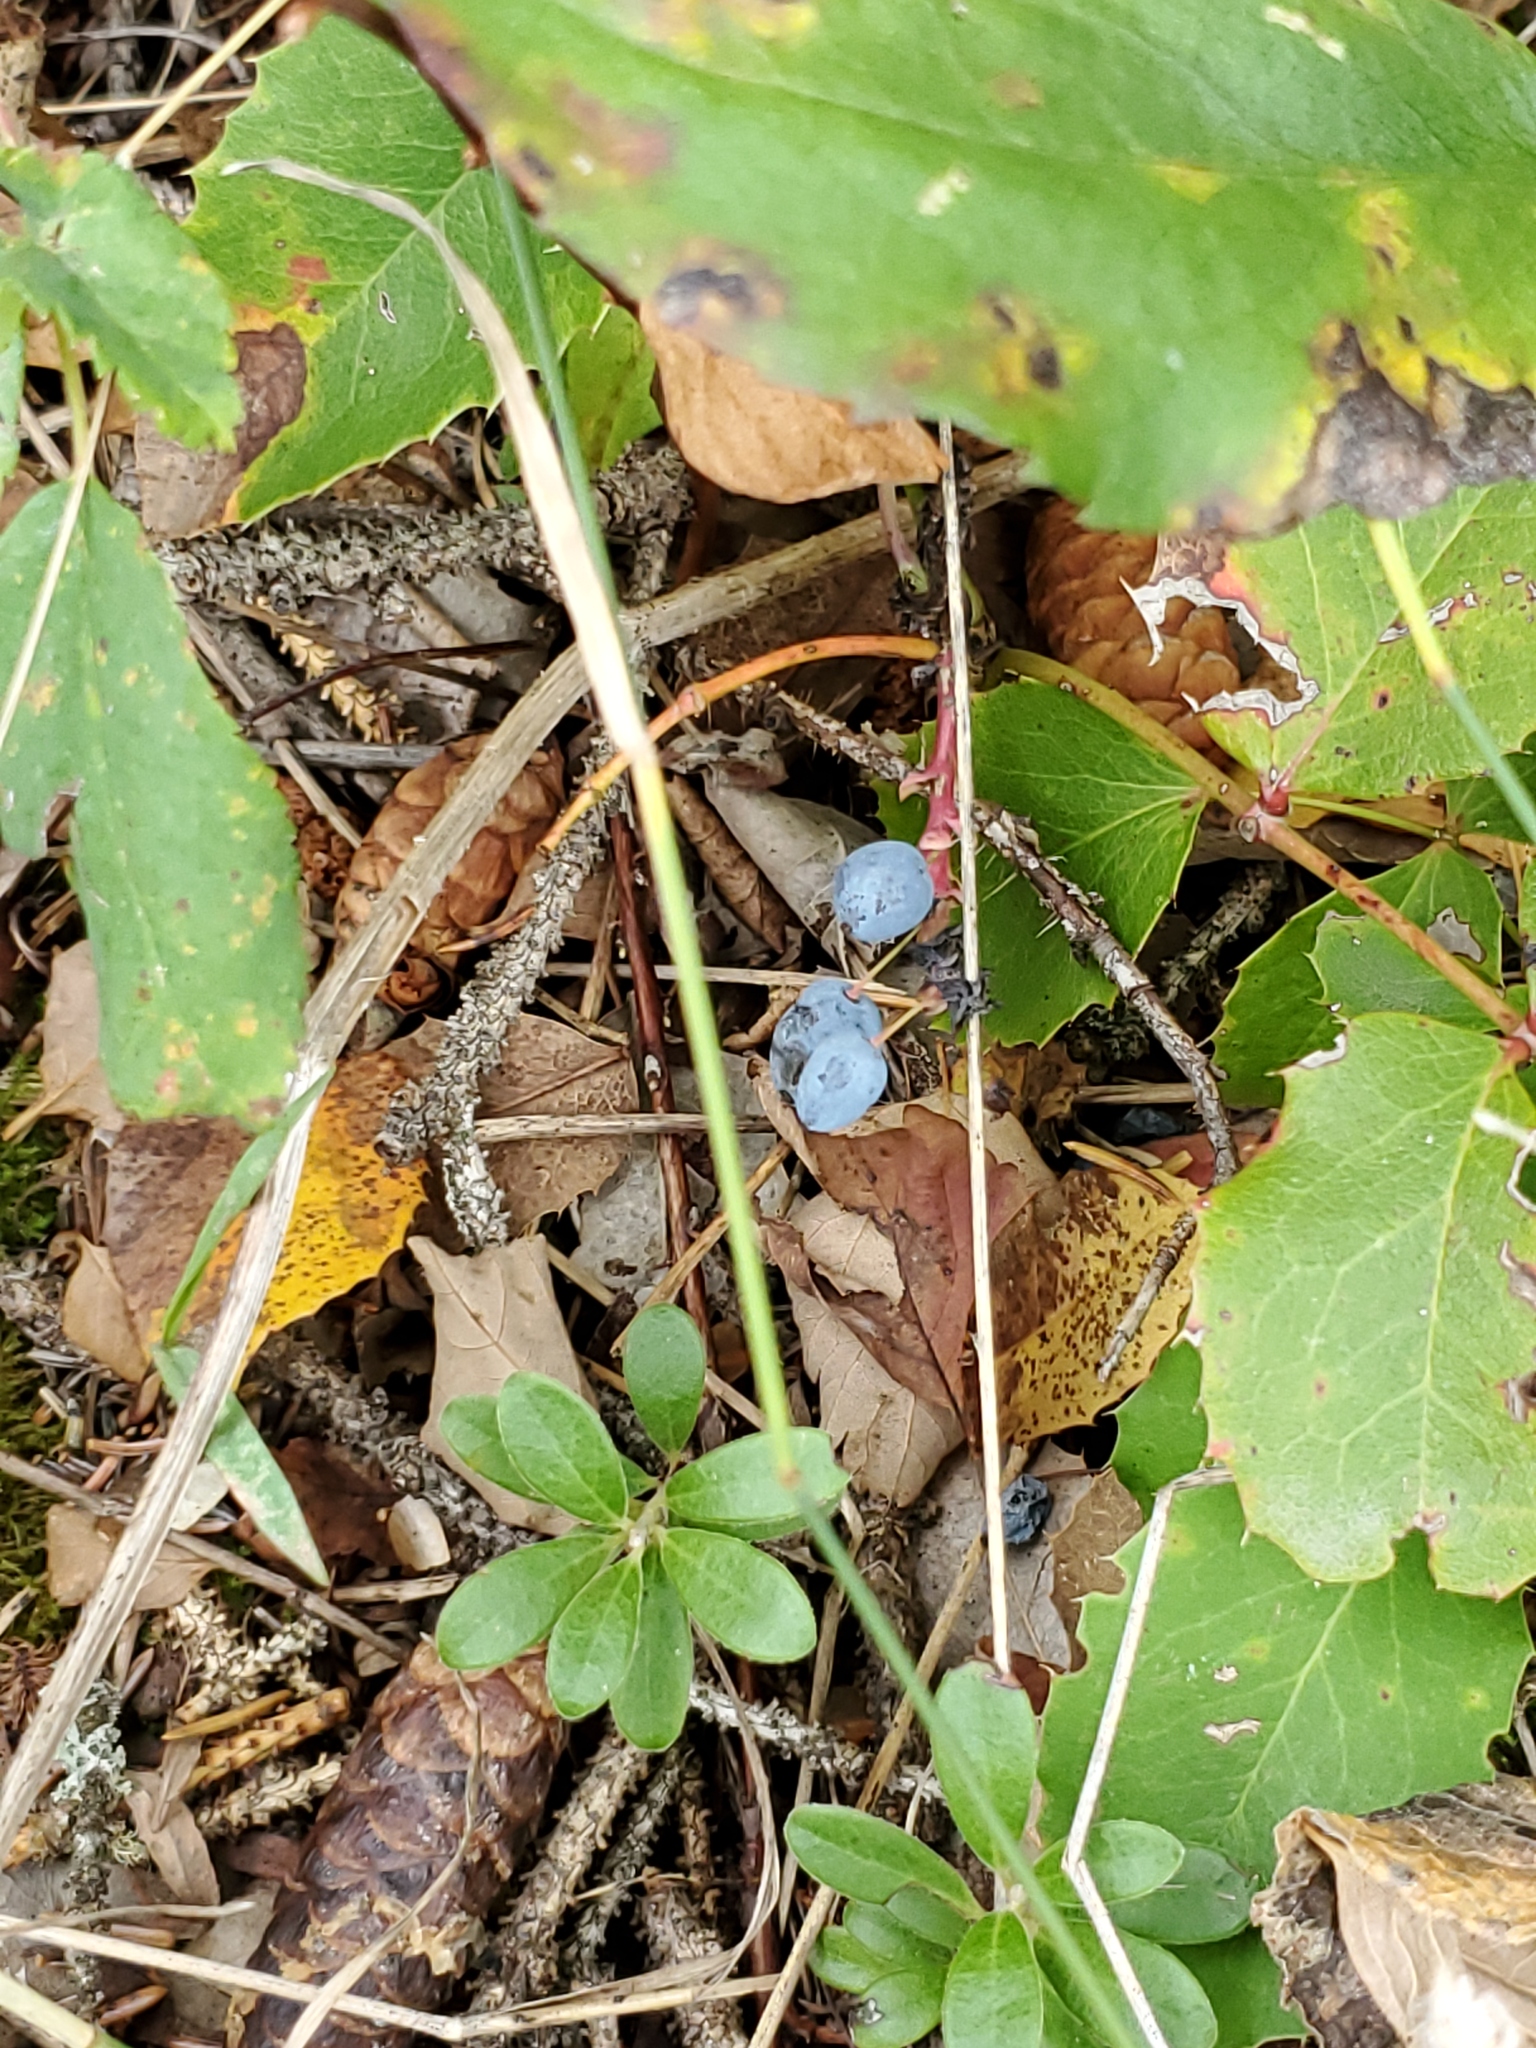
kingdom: Plantae
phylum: Tracheophyta
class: Magnoliopsida
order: Ranunculales
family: Berberidaceae
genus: Mahonia
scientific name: Mahonia repens
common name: Creeping oregon-grape
